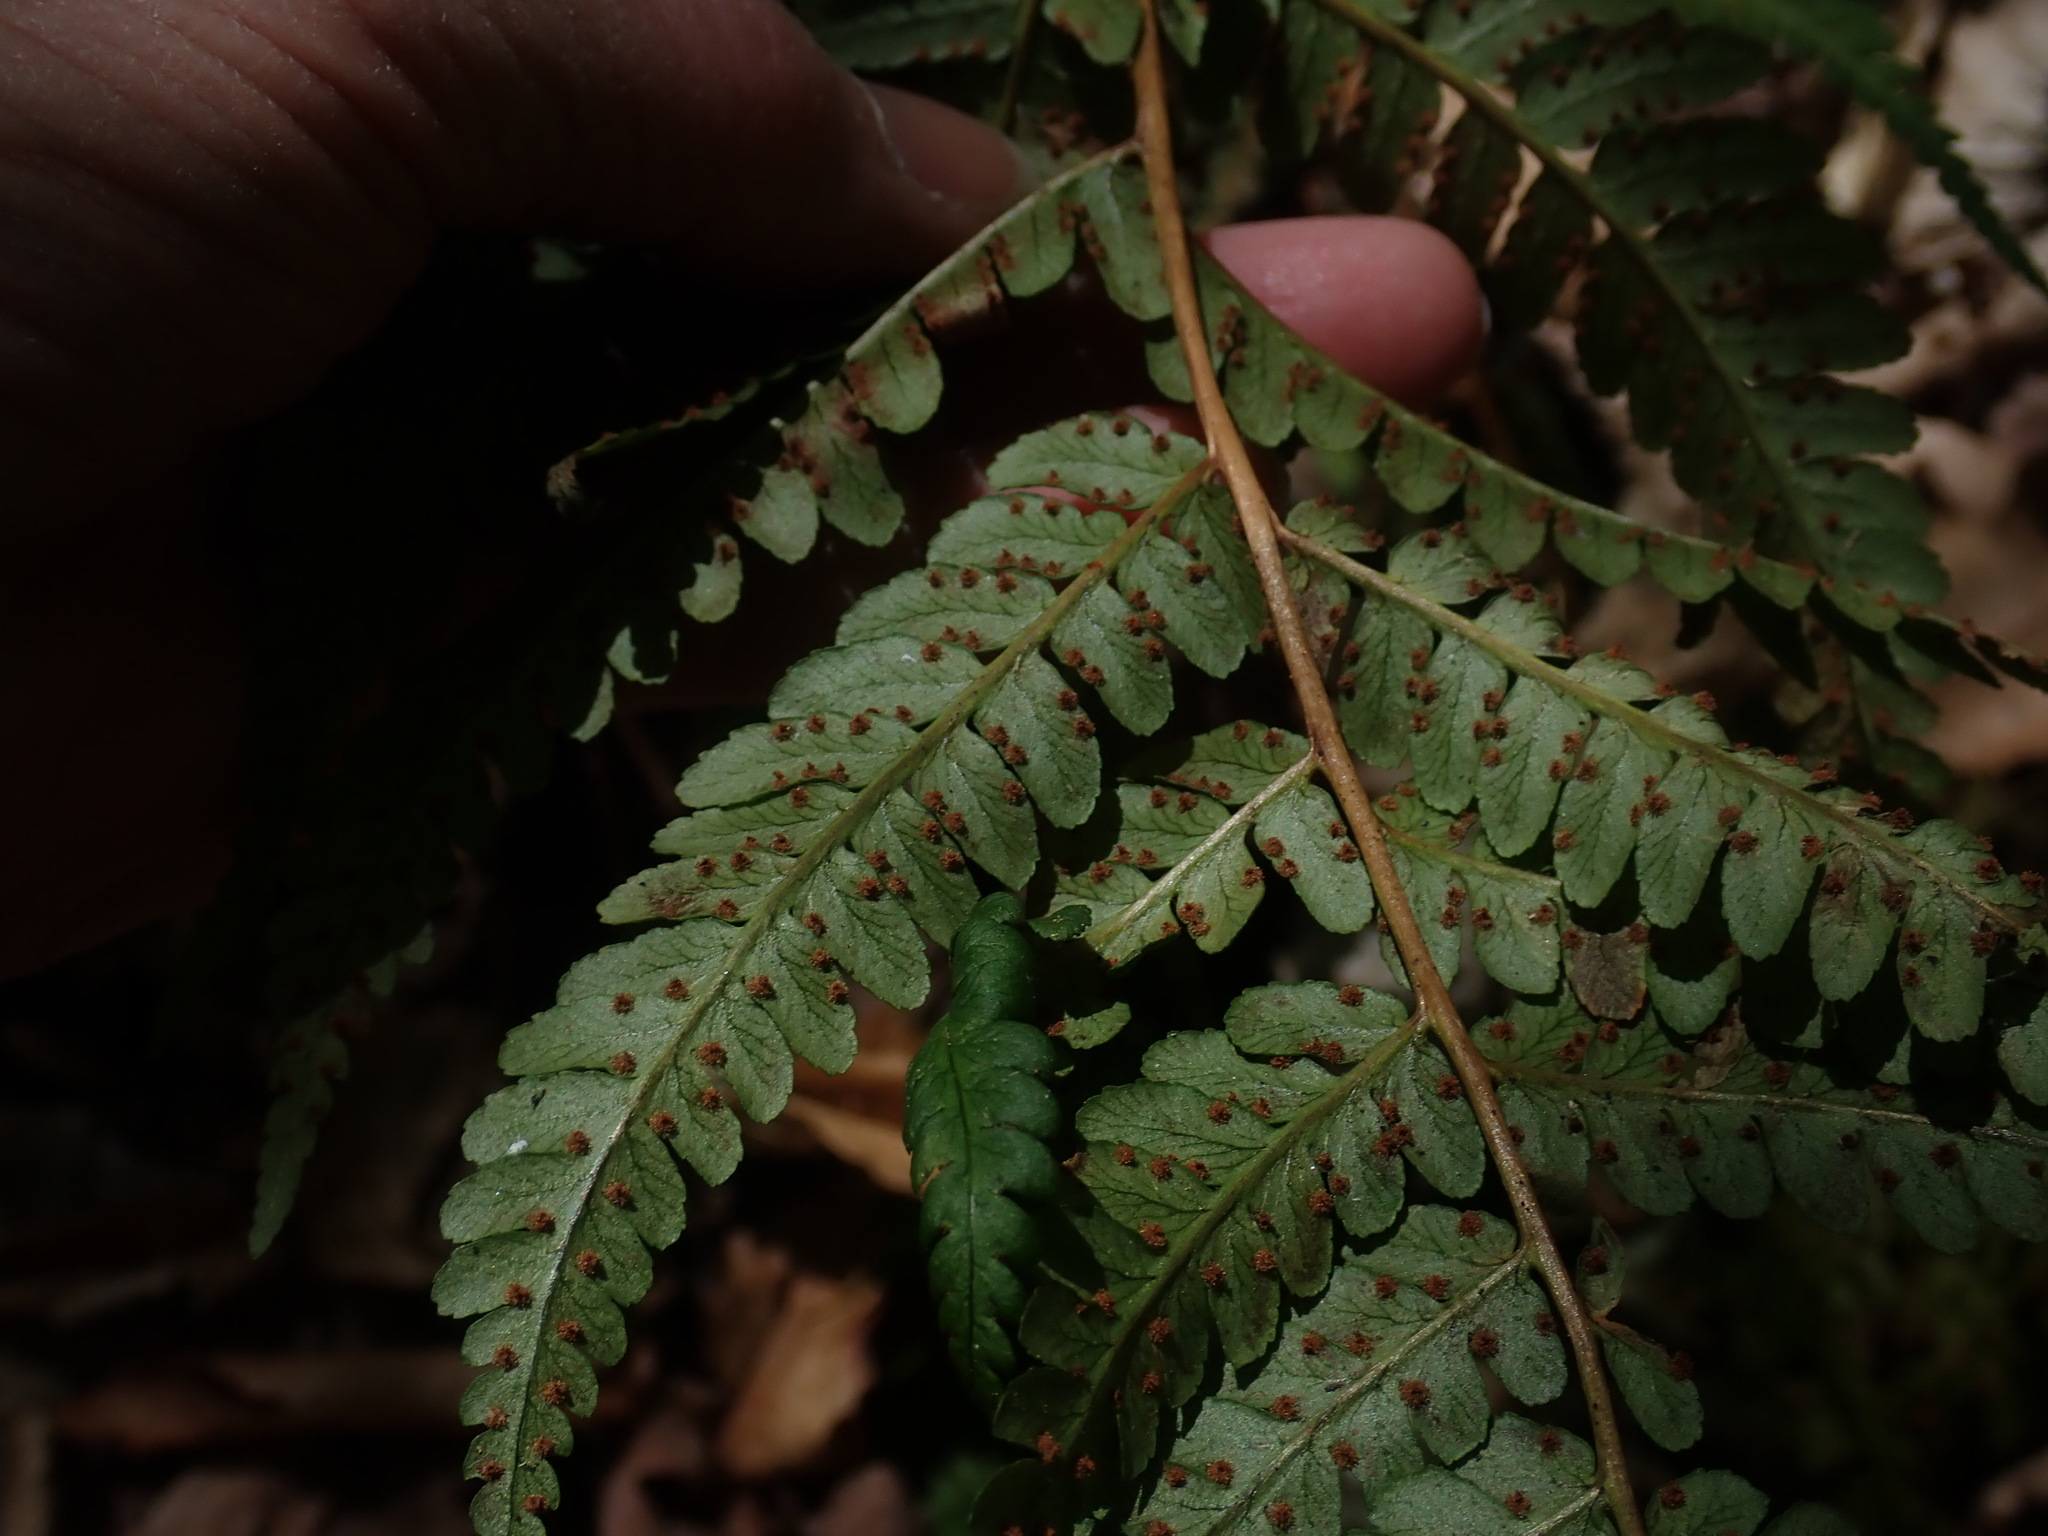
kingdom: Plantae
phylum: Tracheophyta
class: Polypodiopsida
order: Polypodiales
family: Dryopteridaceae
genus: Dryopteris
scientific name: Dryopteris marginalis
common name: Marginal wood fern
